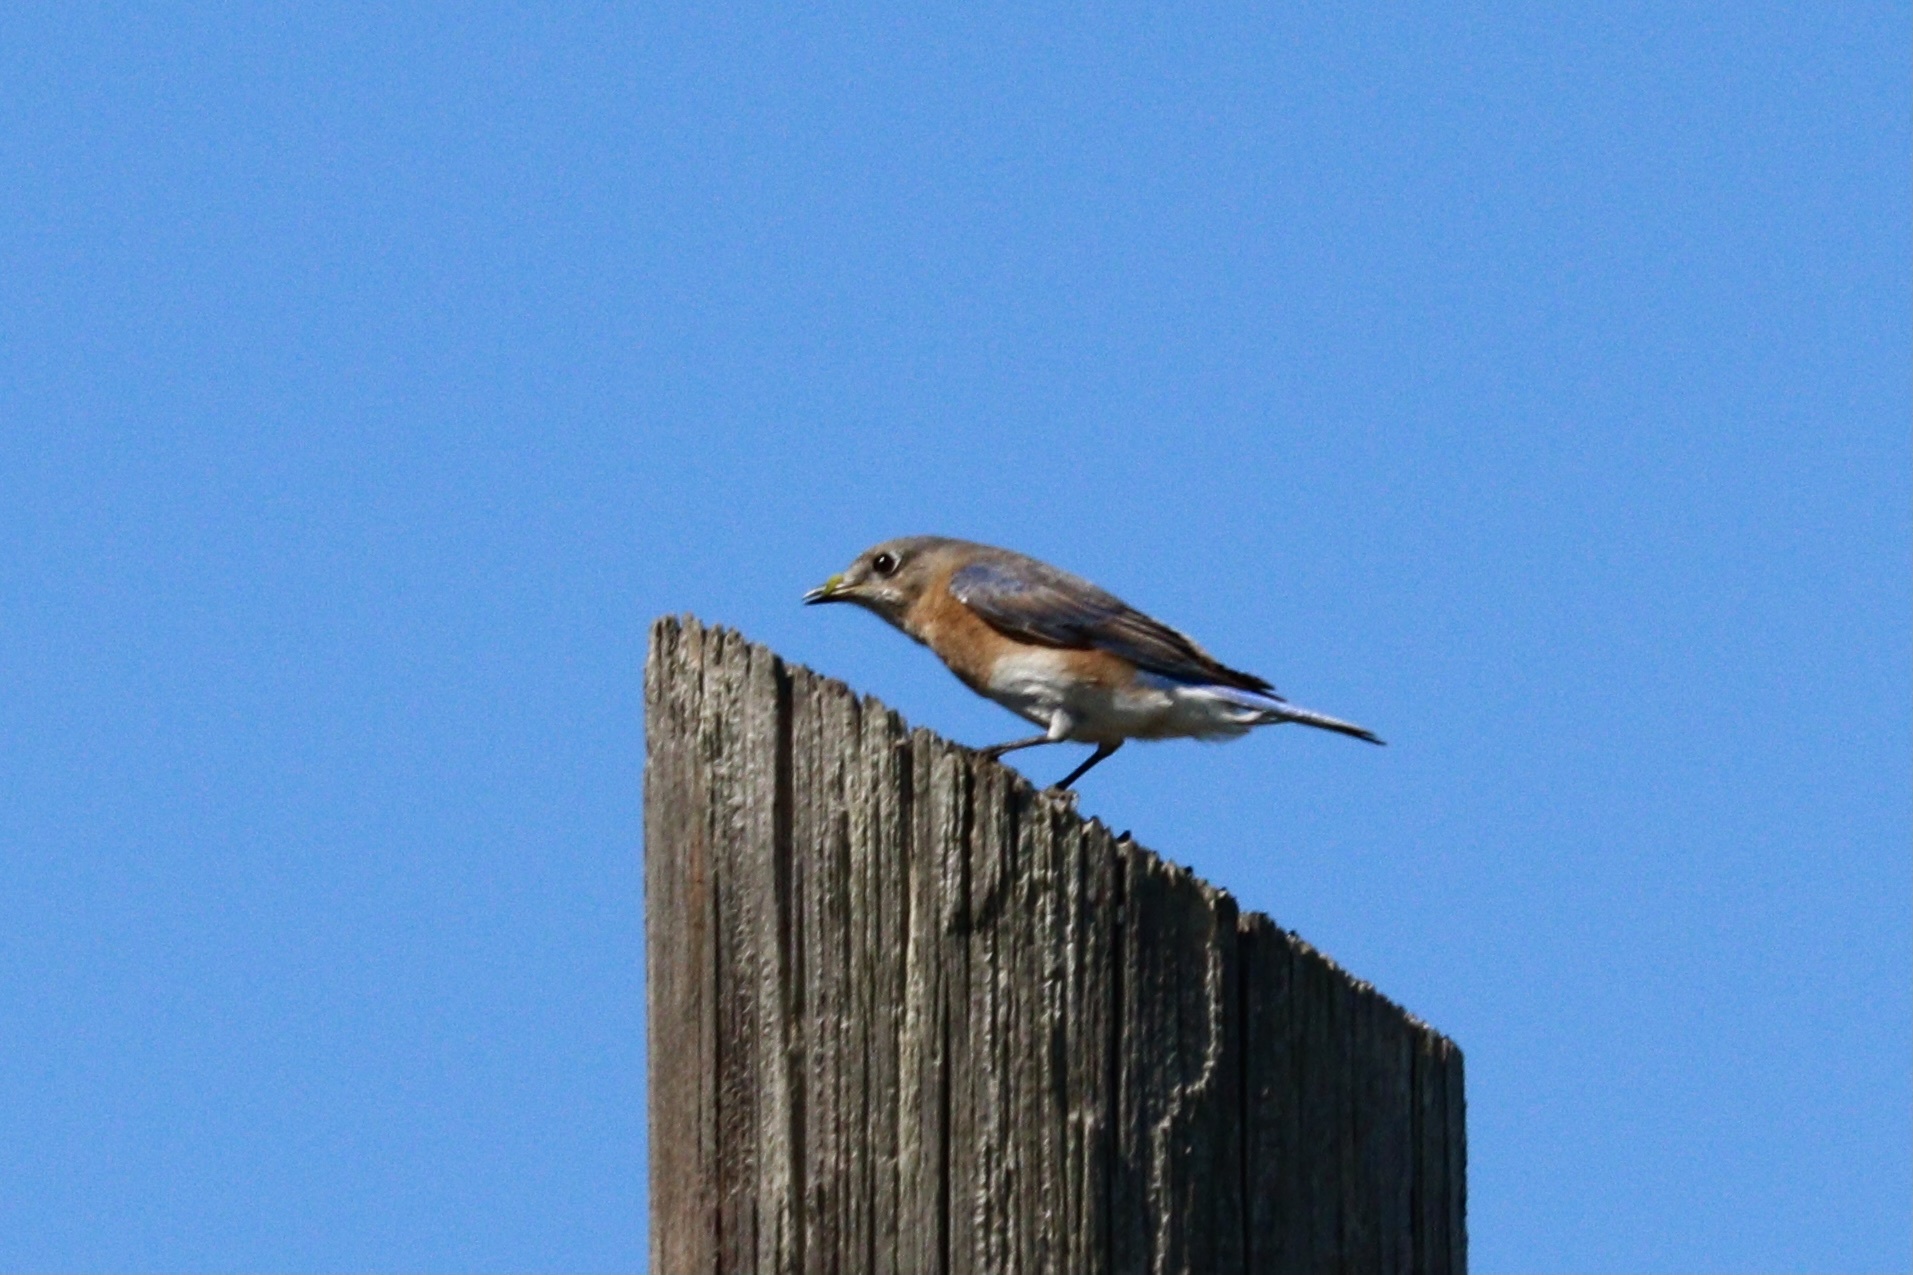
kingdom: Animalia
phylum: Chordata
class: Aves
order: Passeriformes
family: Turdidae
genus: Sialia
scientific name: Sialia sialis
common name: Eastern bluebird
